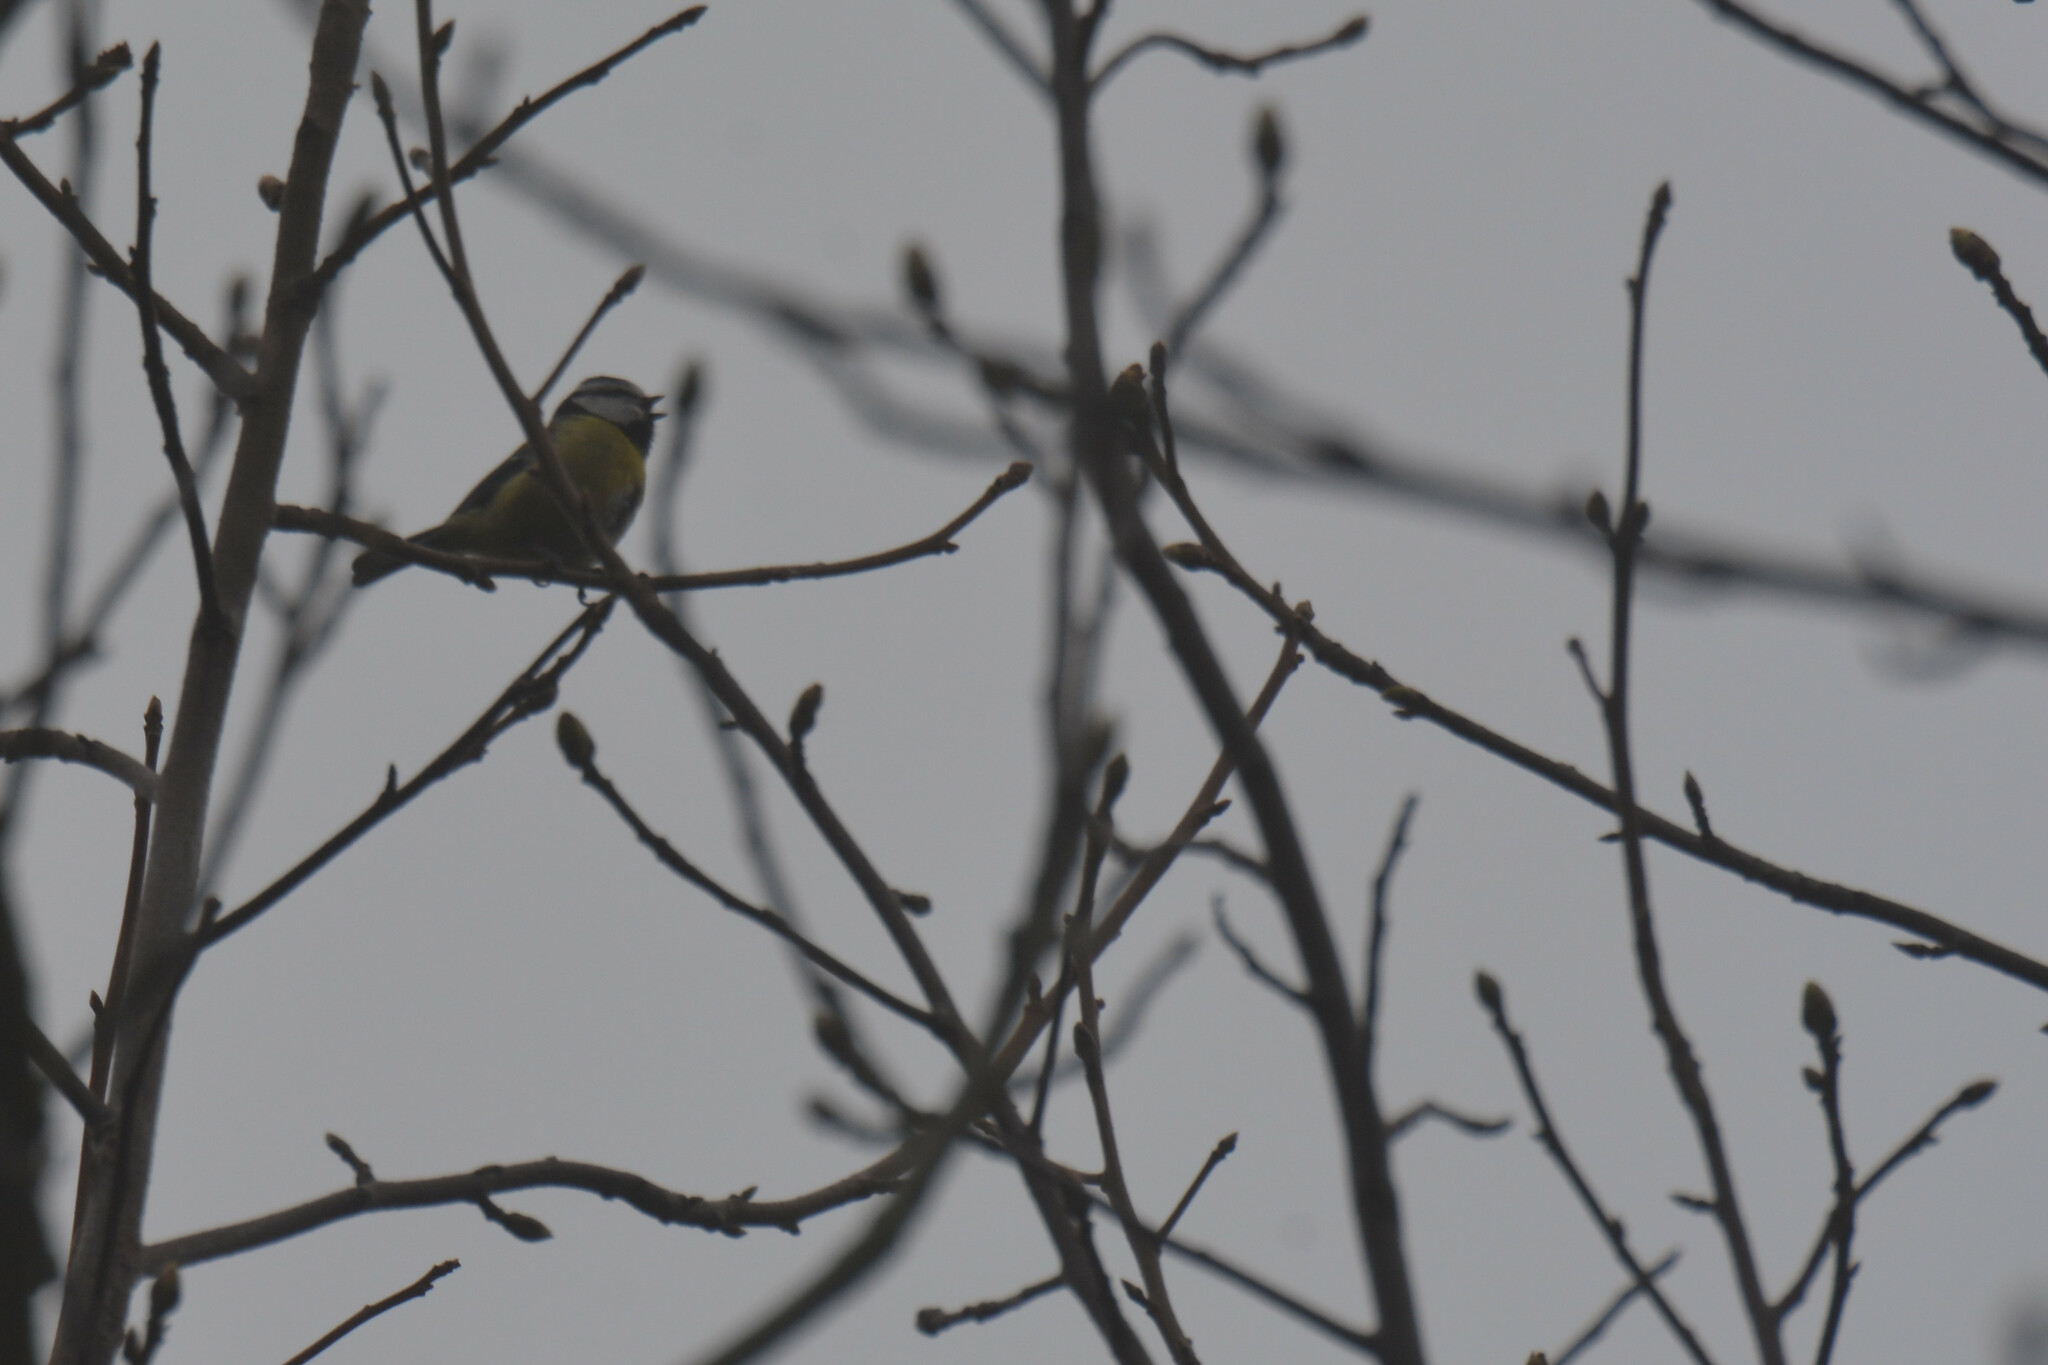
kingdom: Animalia
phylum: Chordata
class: Aves
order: Passeriformes
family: Paridae
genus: Cyanistes
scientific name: Cyanistes caeruleus
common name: Eurasian blue tit
